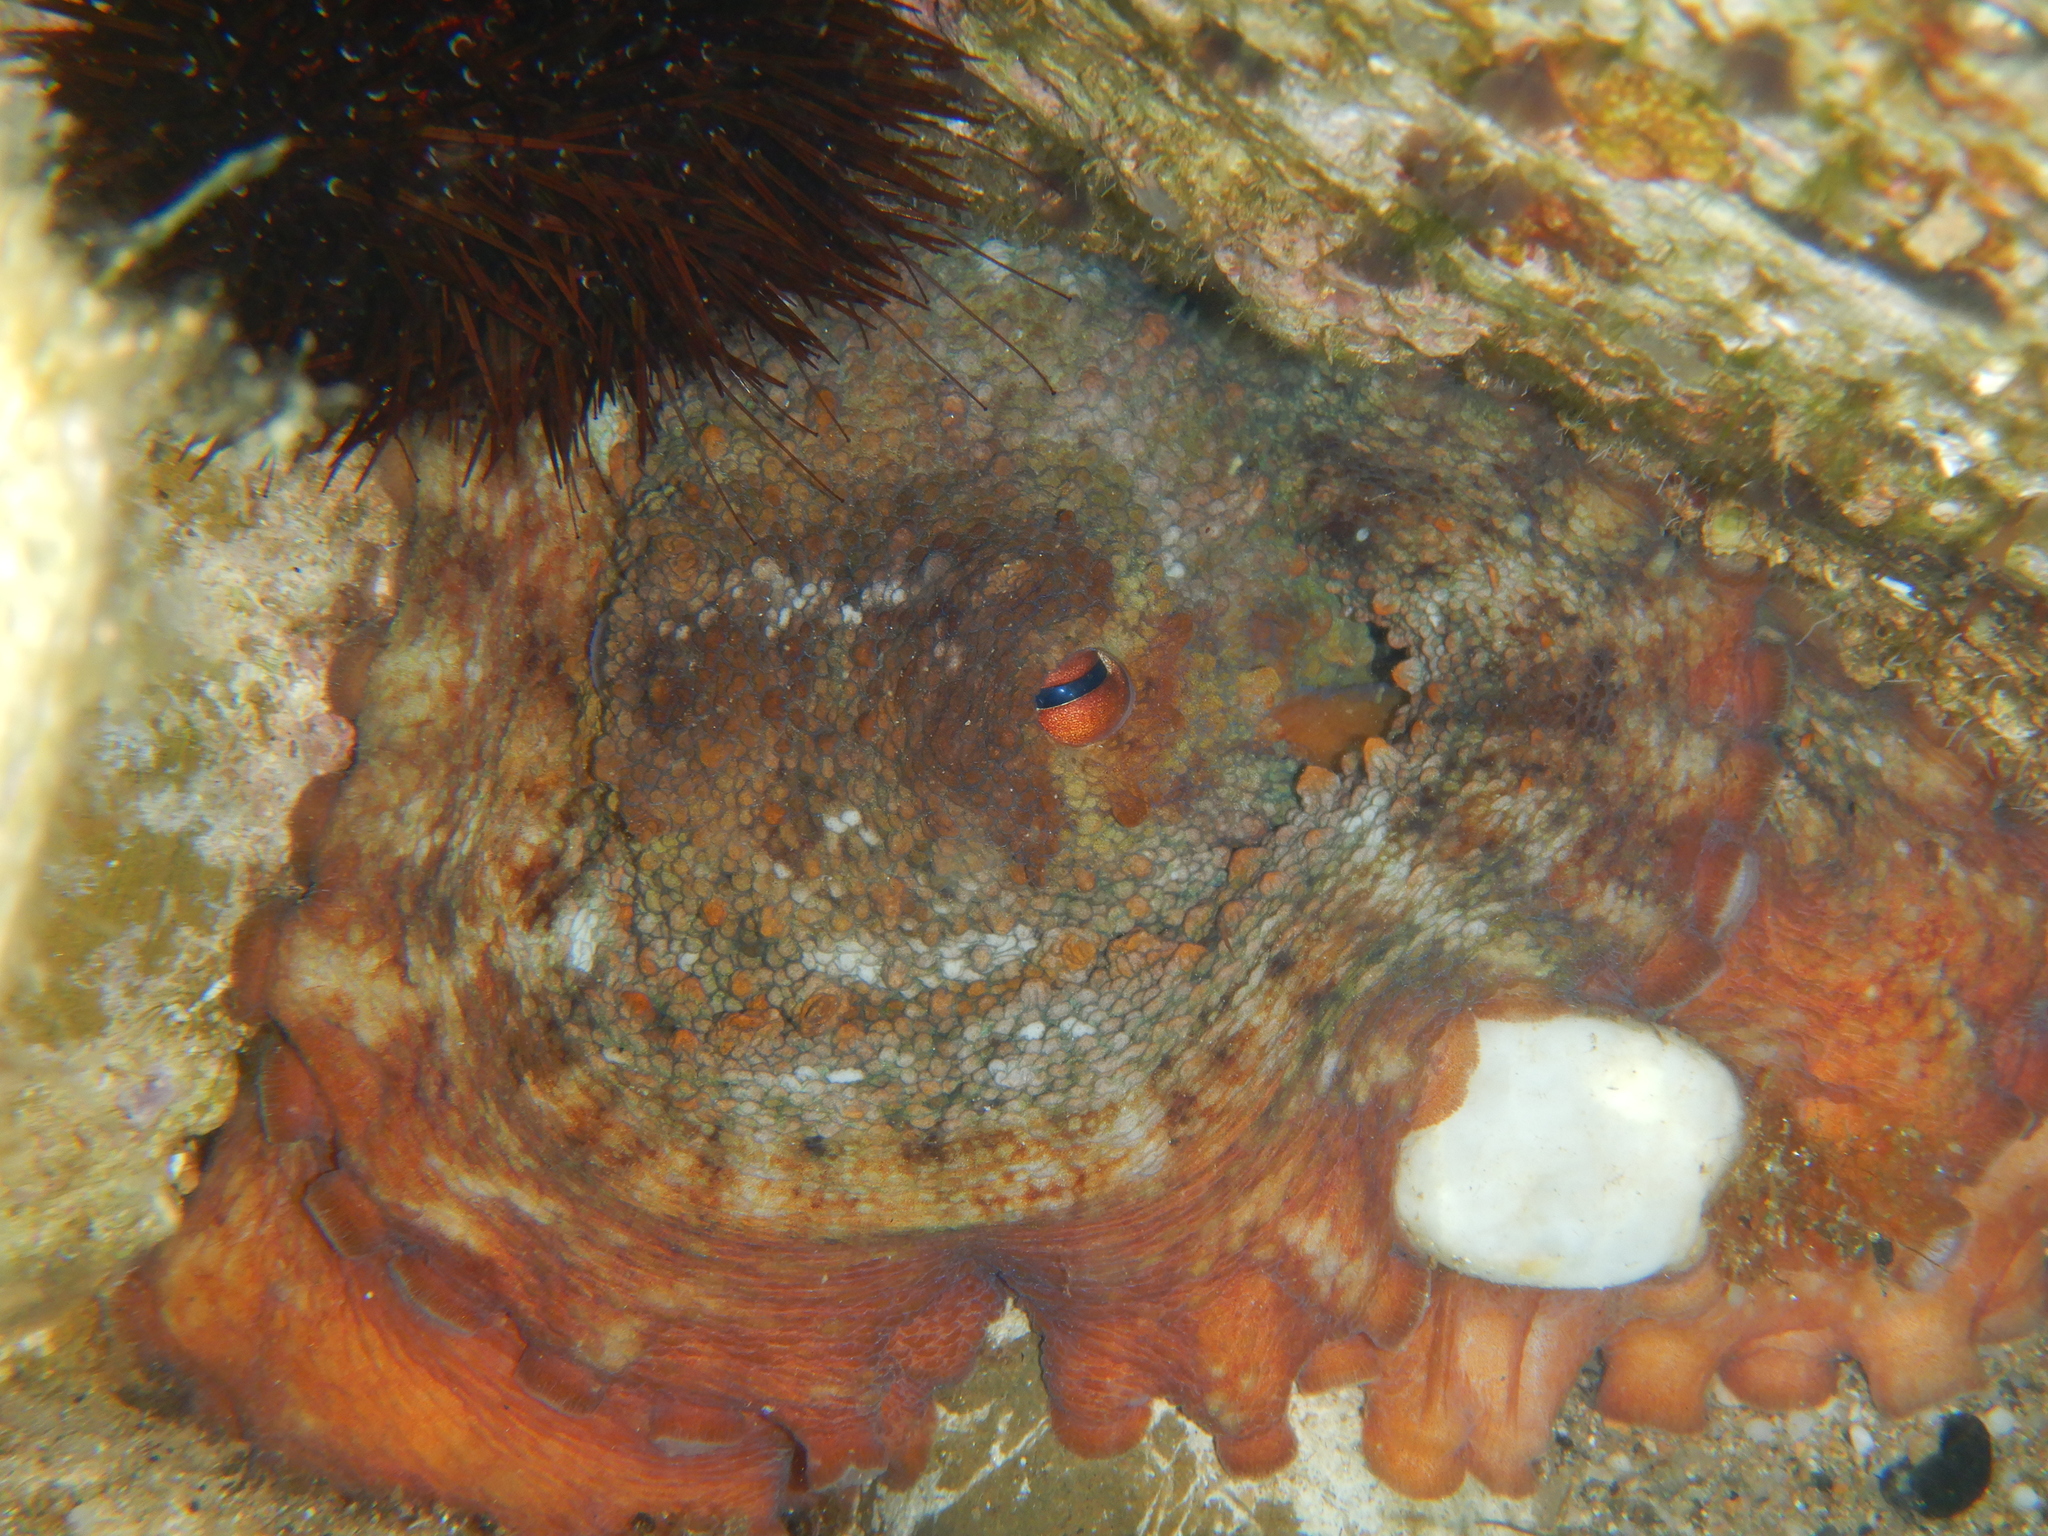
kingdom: Animalia
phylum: Mollusca
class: Cephalopoda
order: Octopoda
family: Octopodidae
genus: Octopus
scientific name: Octopus vulgaris
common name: Common octopus
